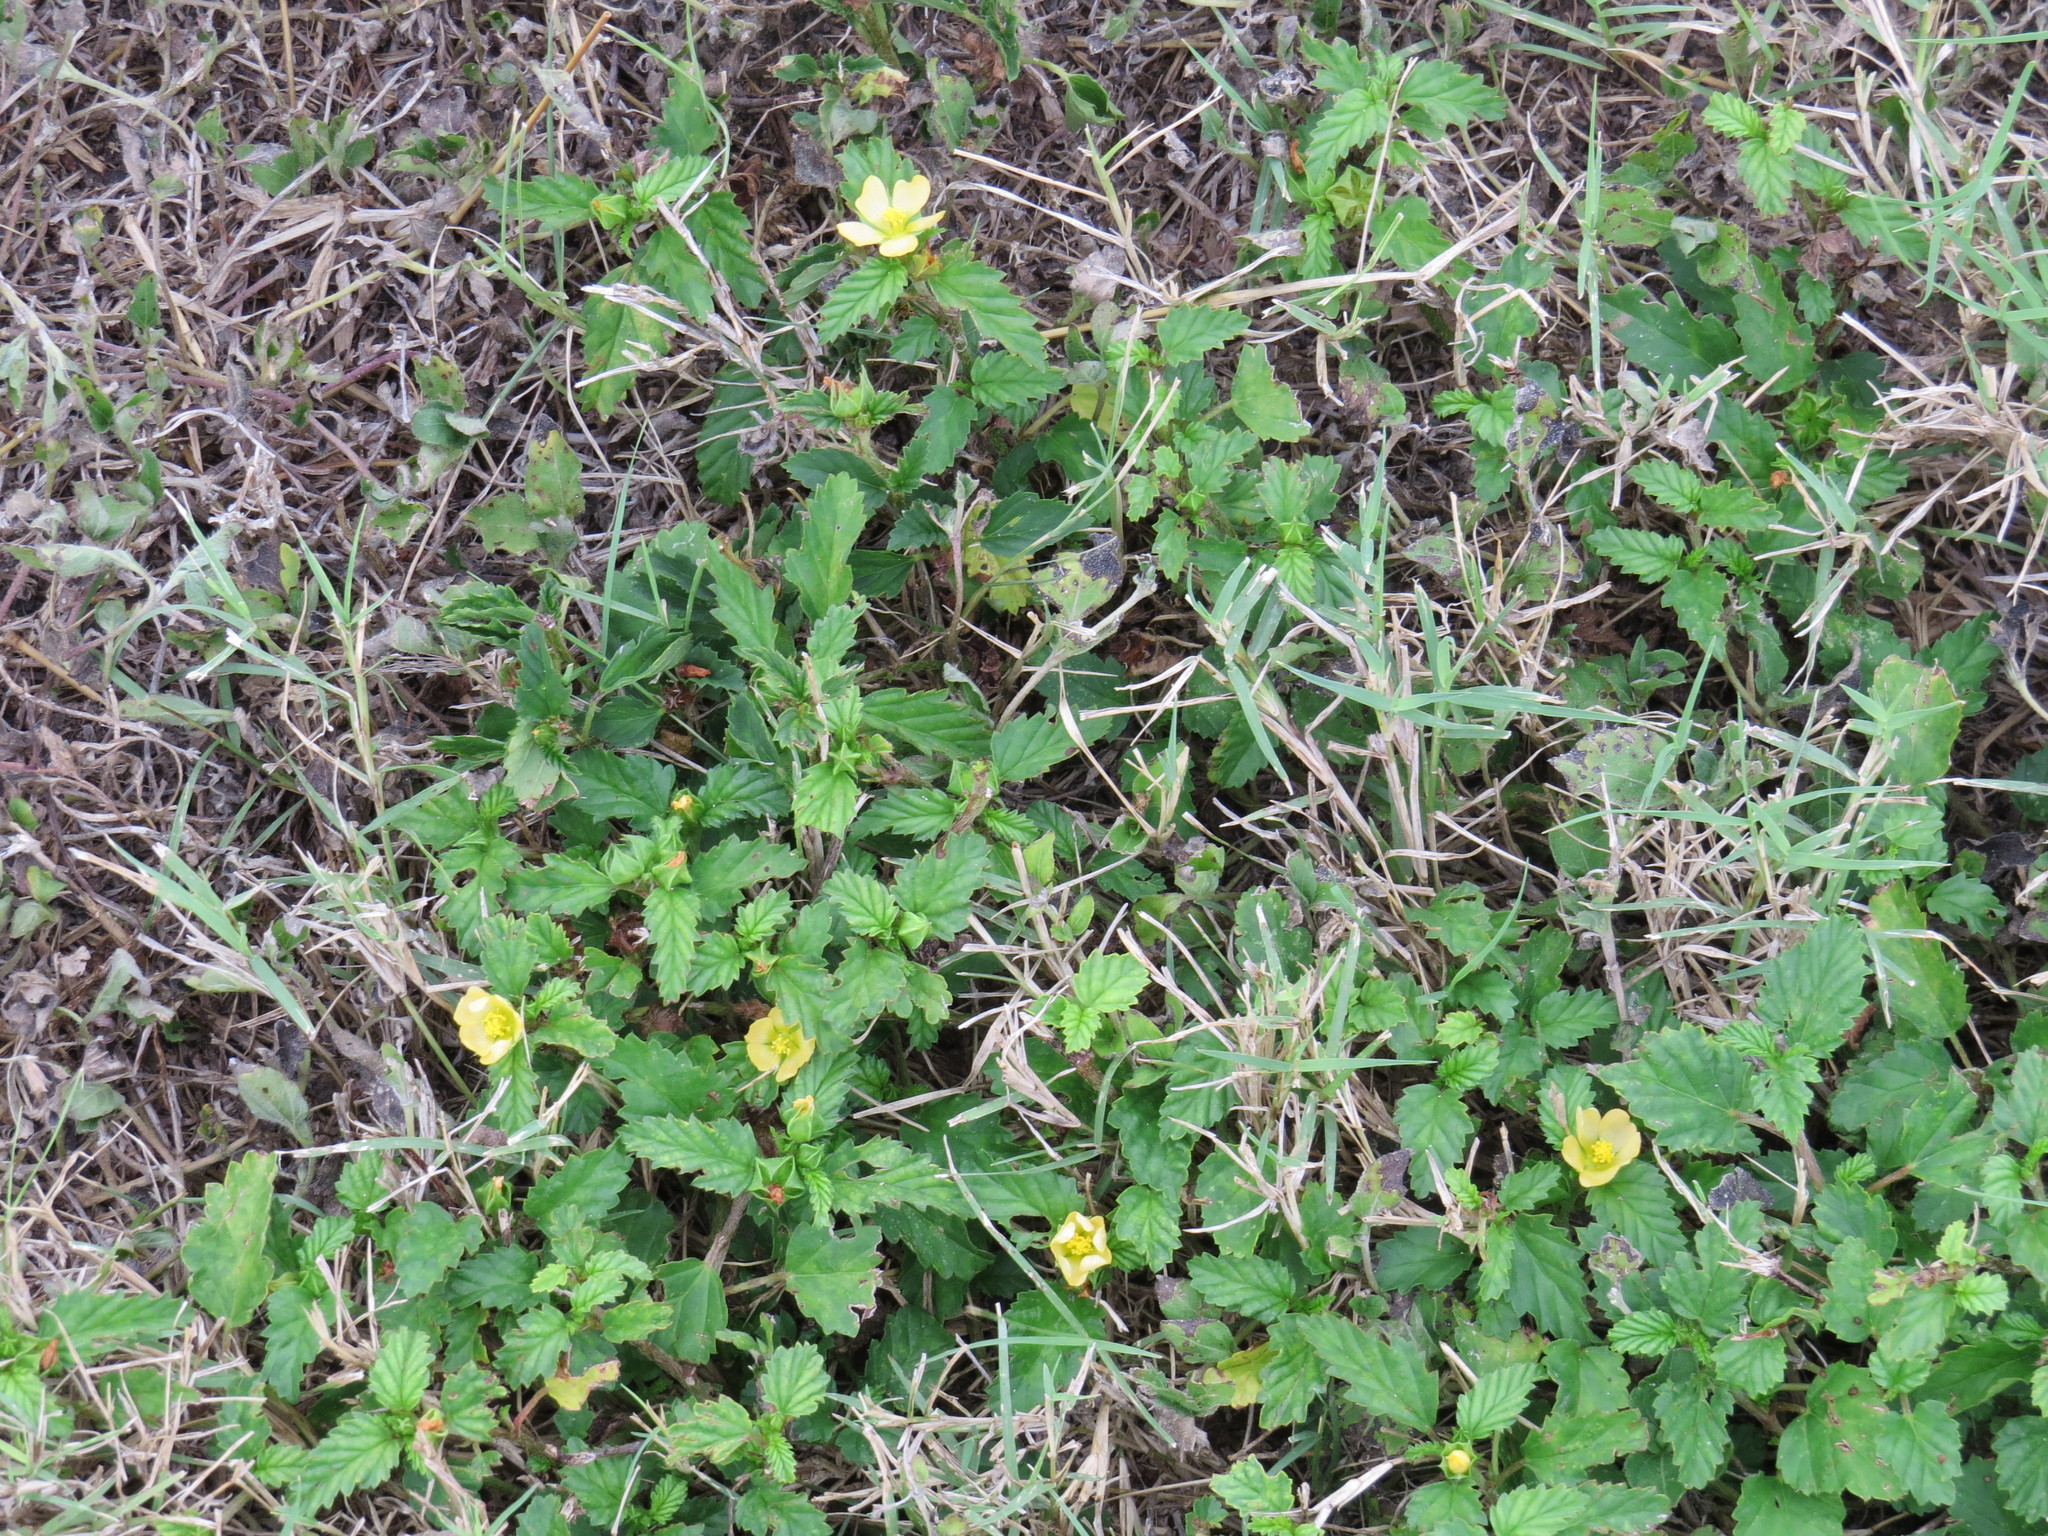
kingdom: Plantae
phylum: Tracheophyta
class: Magnoliopsida
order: Malvales
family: Malvaceae
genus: Malvastrum
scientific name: Malvastrum coromandelianum
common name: Threelobe false mallow
